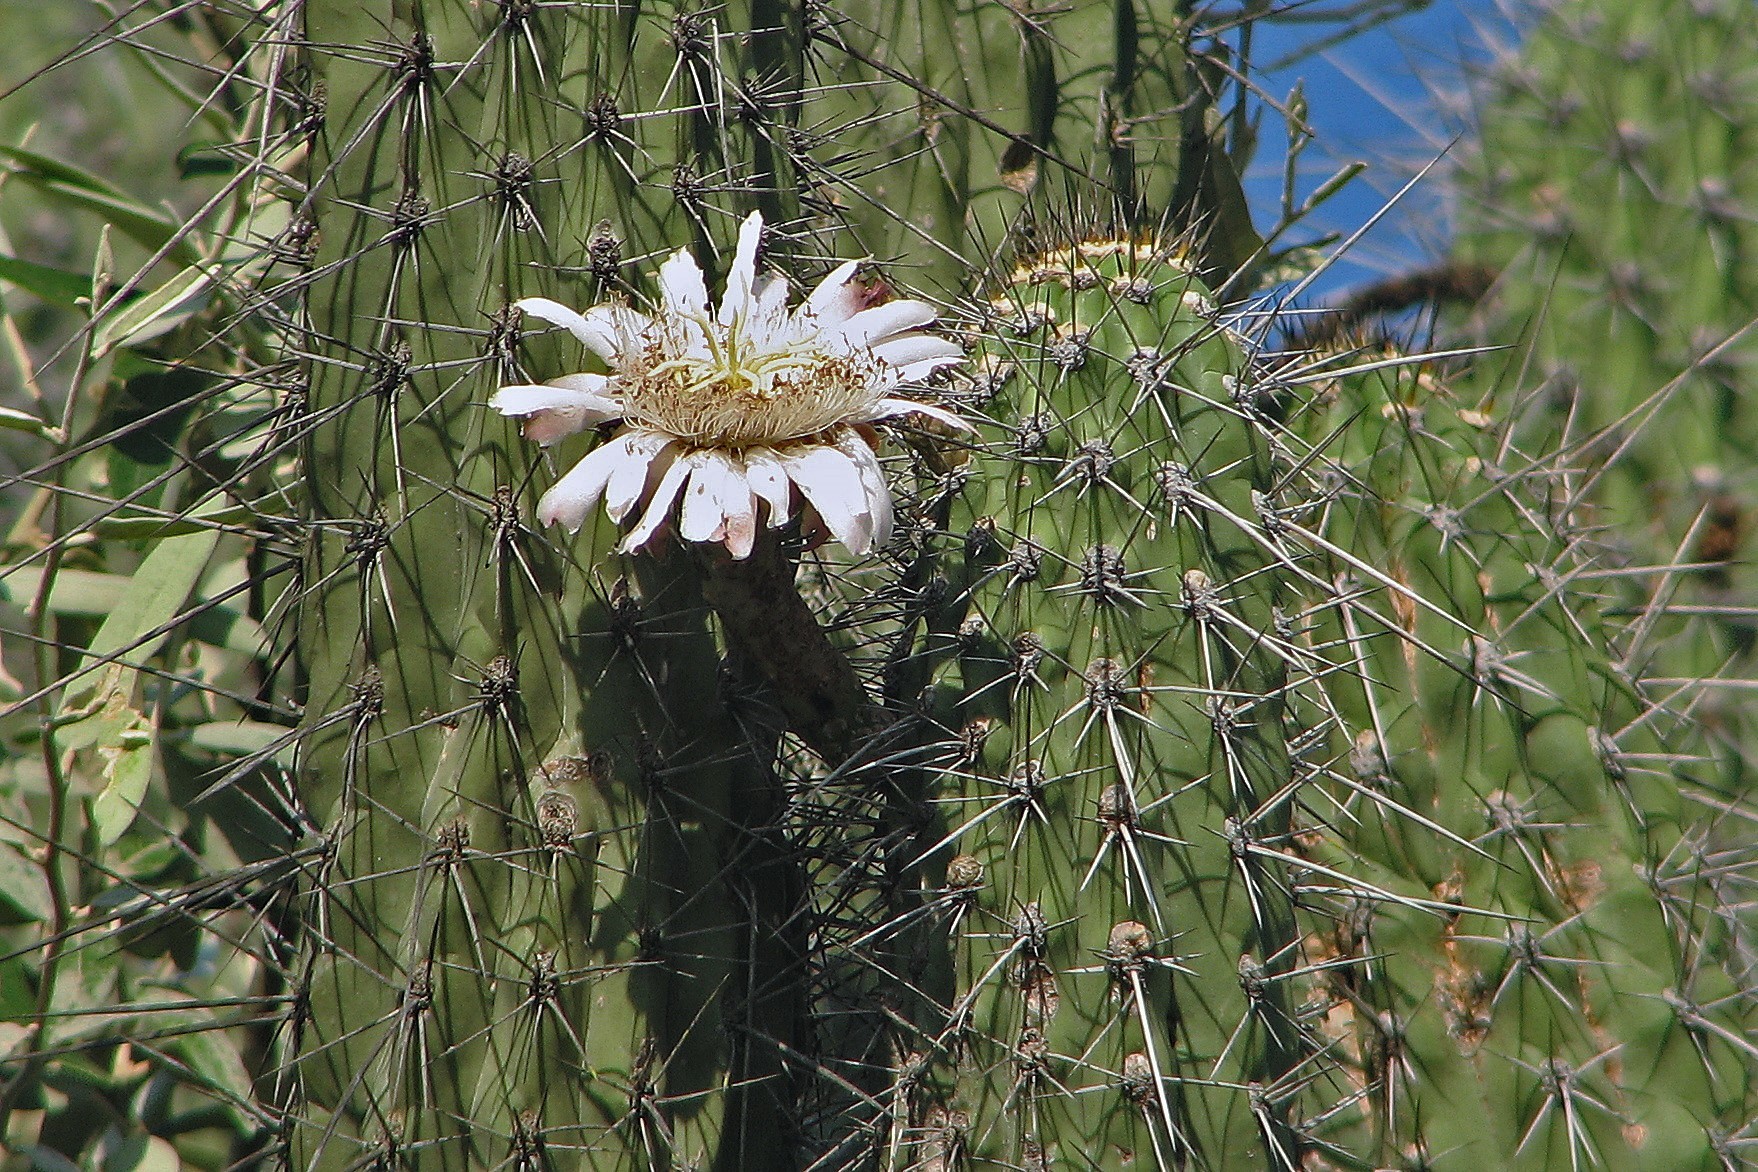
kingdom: Plantae
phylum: Tracheophyta
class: Magnoliopsida
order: Caryophyllales
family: Cactaceae
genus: Stetsonia
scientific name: Stetsonia coryne
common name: Toothpick cactus
